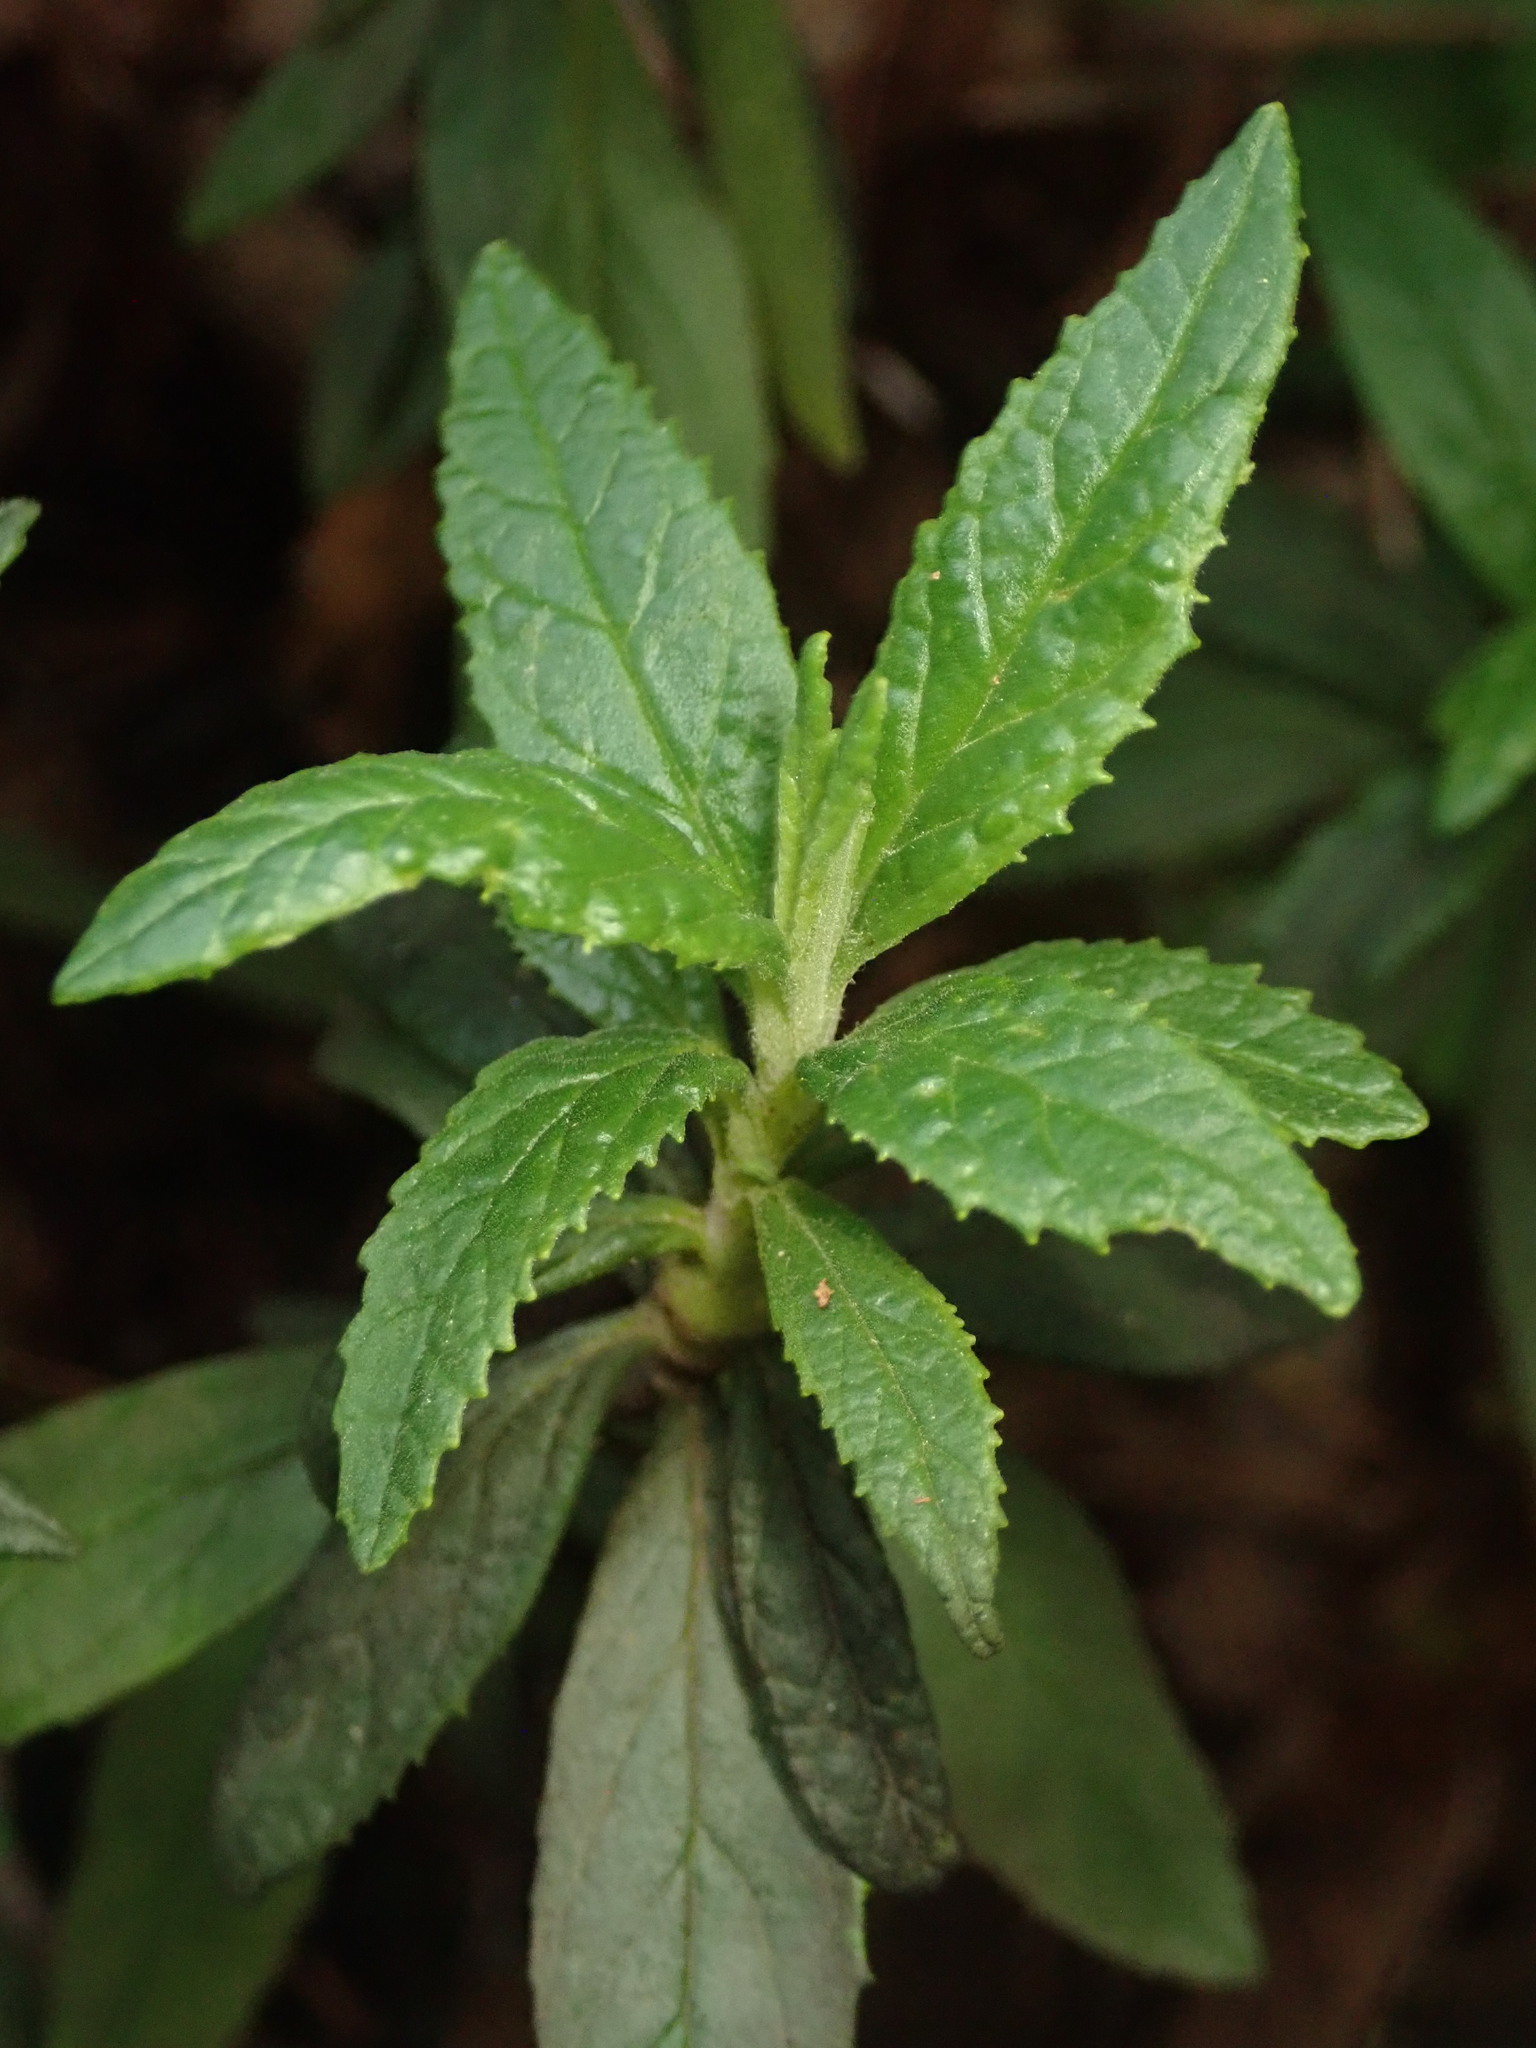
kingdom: Plantae
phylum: Tracheophyta
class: Magnoliopsida
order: Lamiales
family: Phrymaceae
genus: Diplacus
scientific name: Diplacus aurantiacus
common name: Bush monkey-flower
